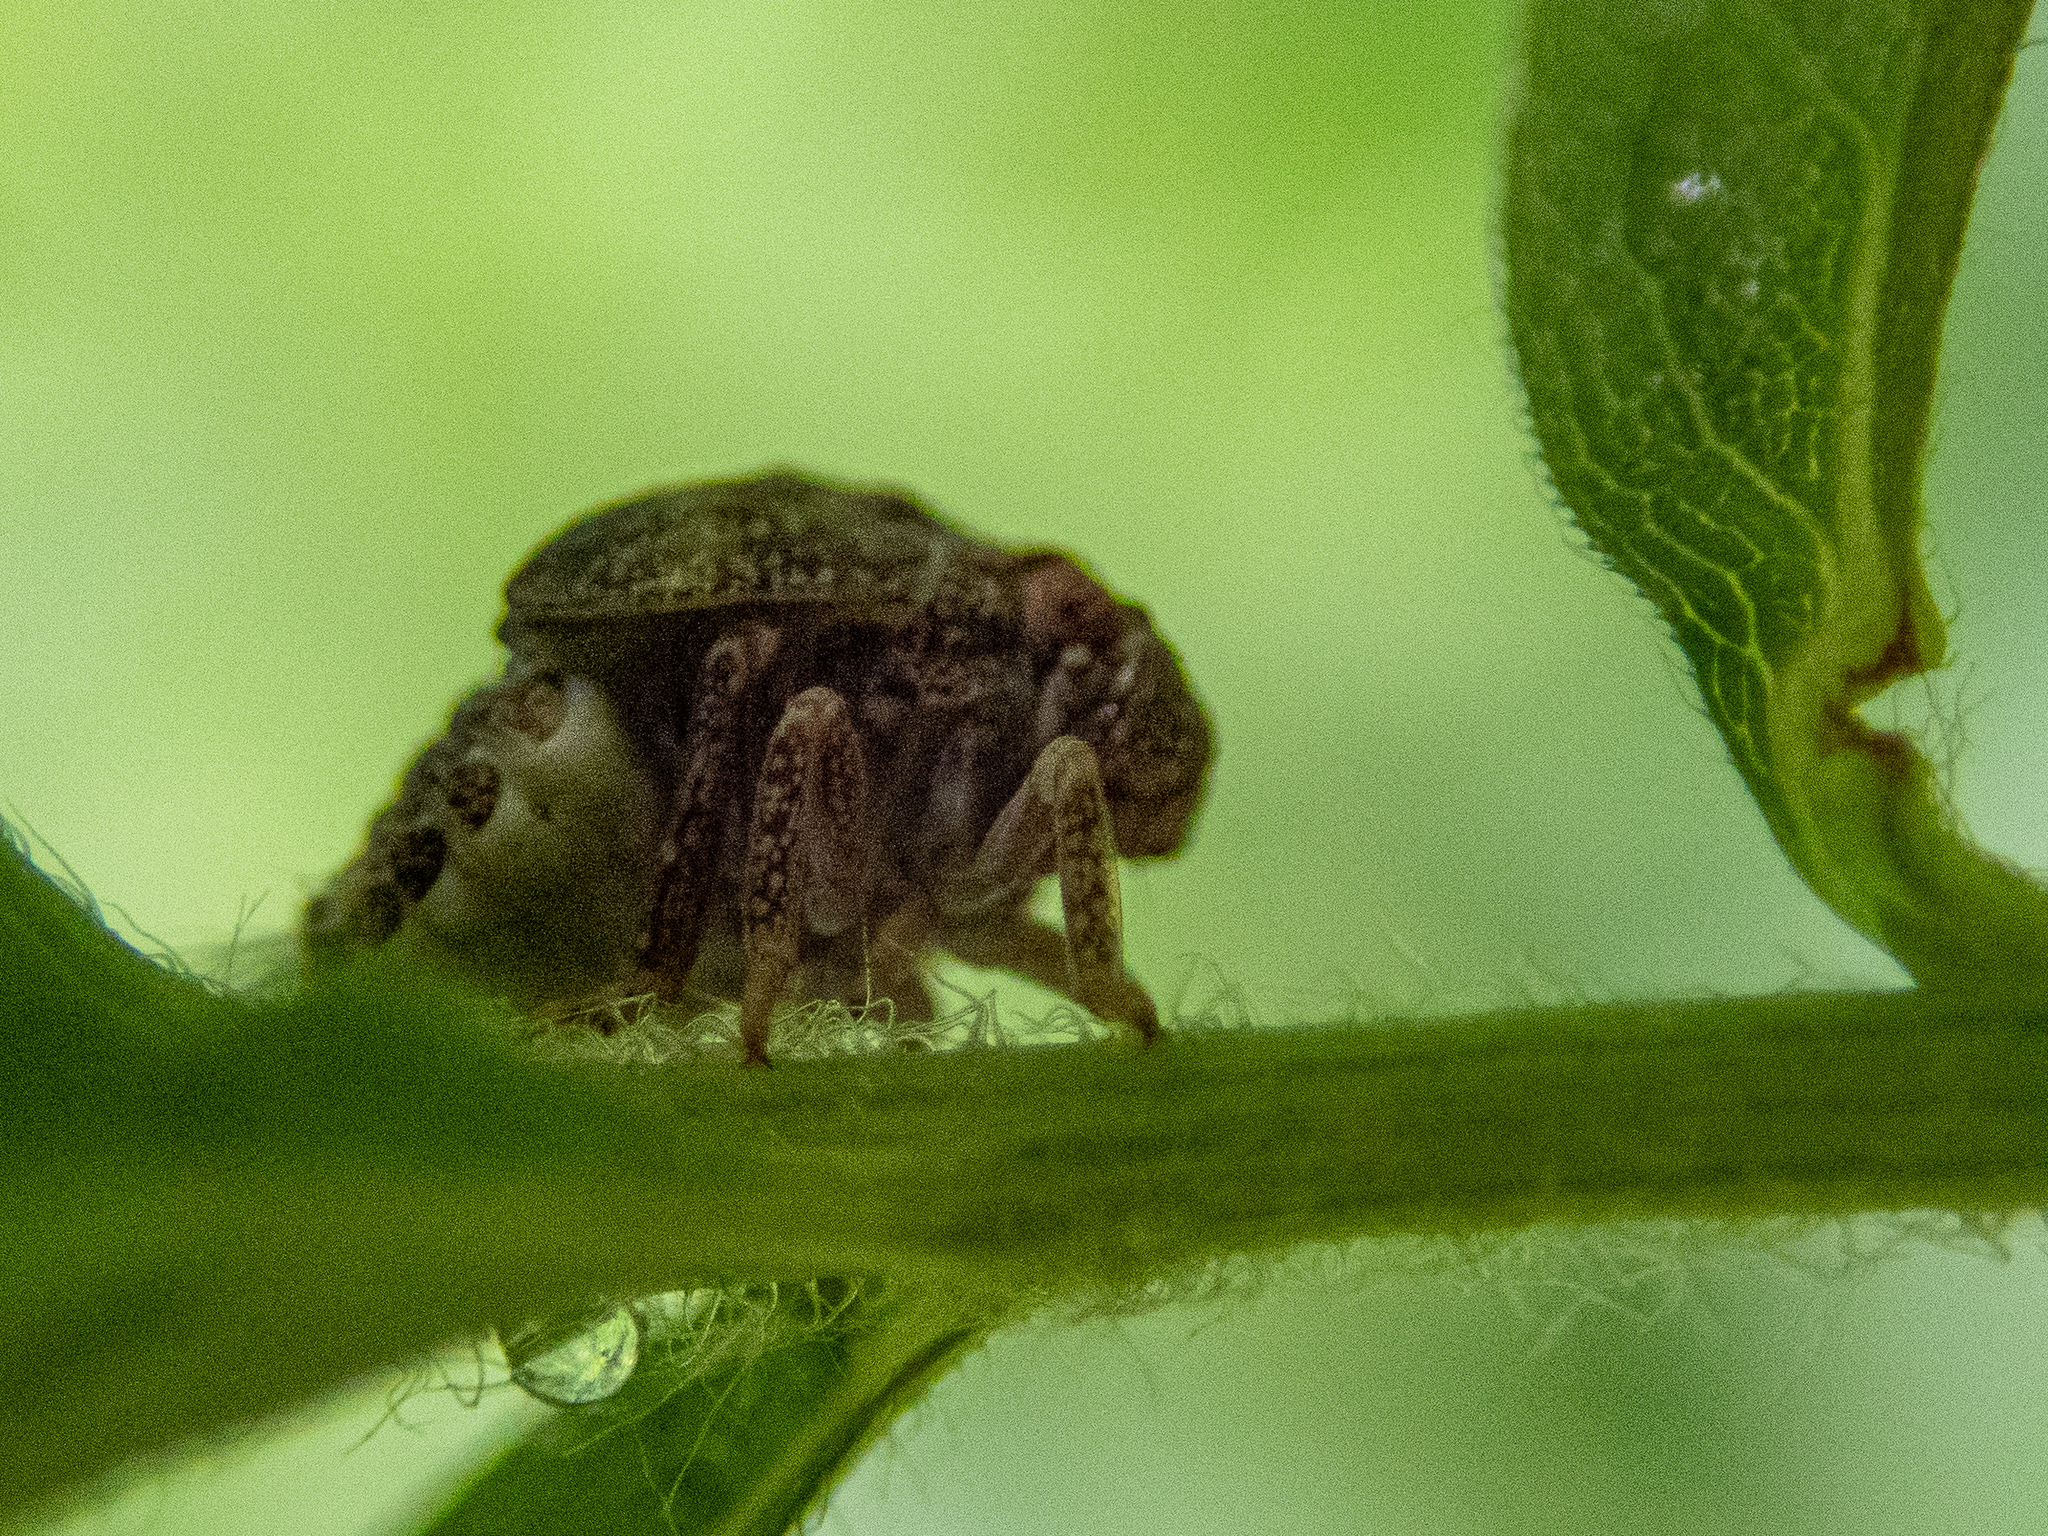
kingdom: Animalia
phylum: Arthropoda
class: Insecta
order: Hemiptera
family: Acanaloniidae
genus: Acanalonia
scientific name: Acanalonia conica
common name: Green cone-headed planthopper
